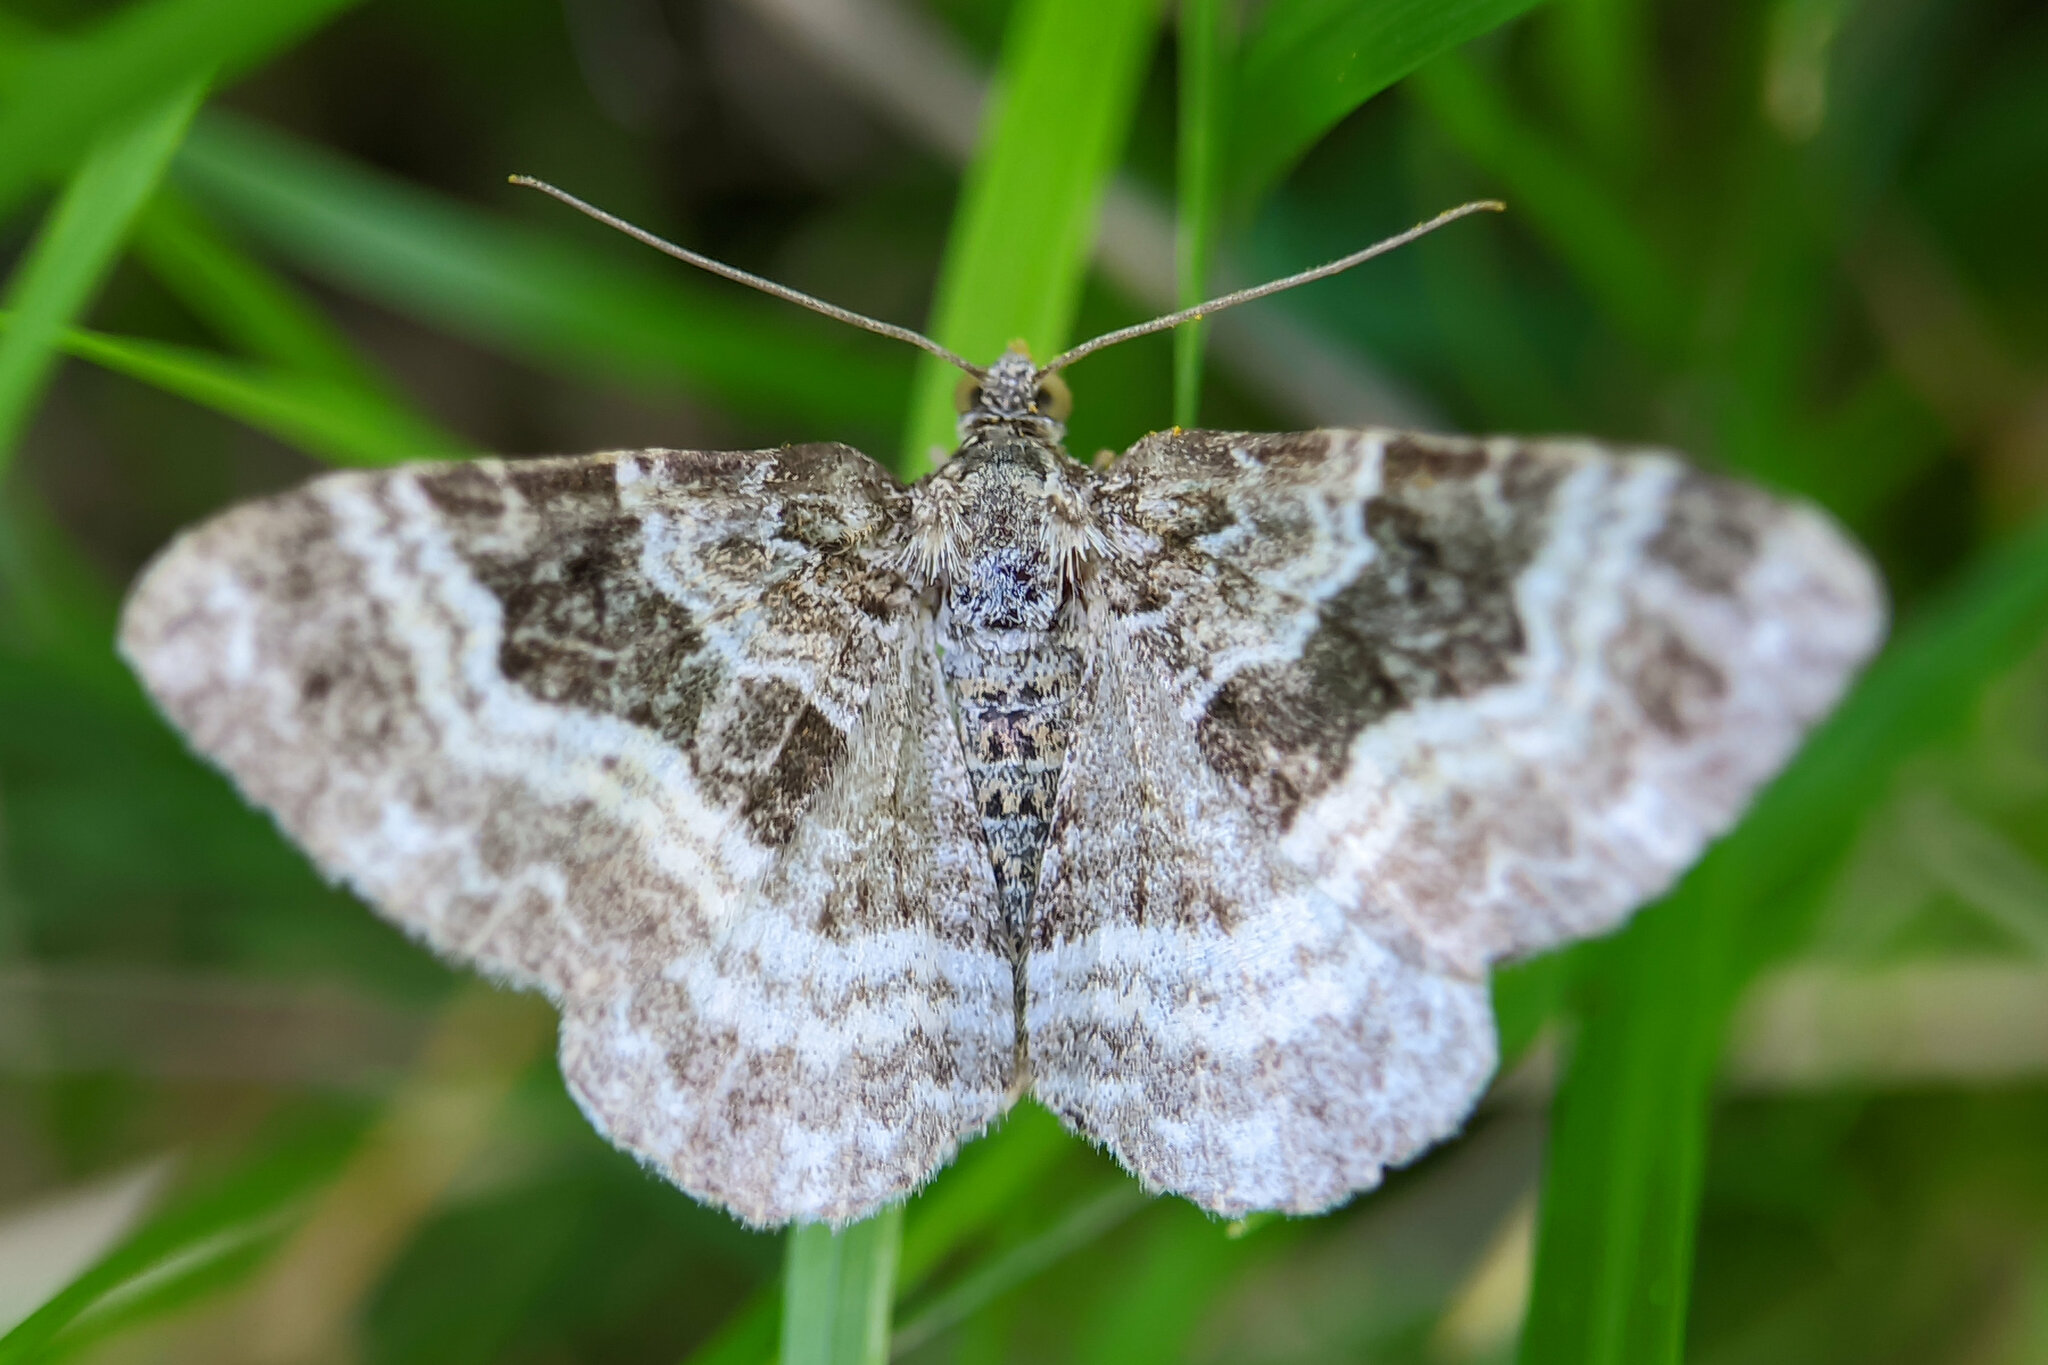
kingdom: Animalia
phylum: Arthropoda
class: Insecta
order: Lepidoptera
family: Geometridae
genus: Epirrhoe
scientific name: Epirrhoe alternata
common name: Common carpet
